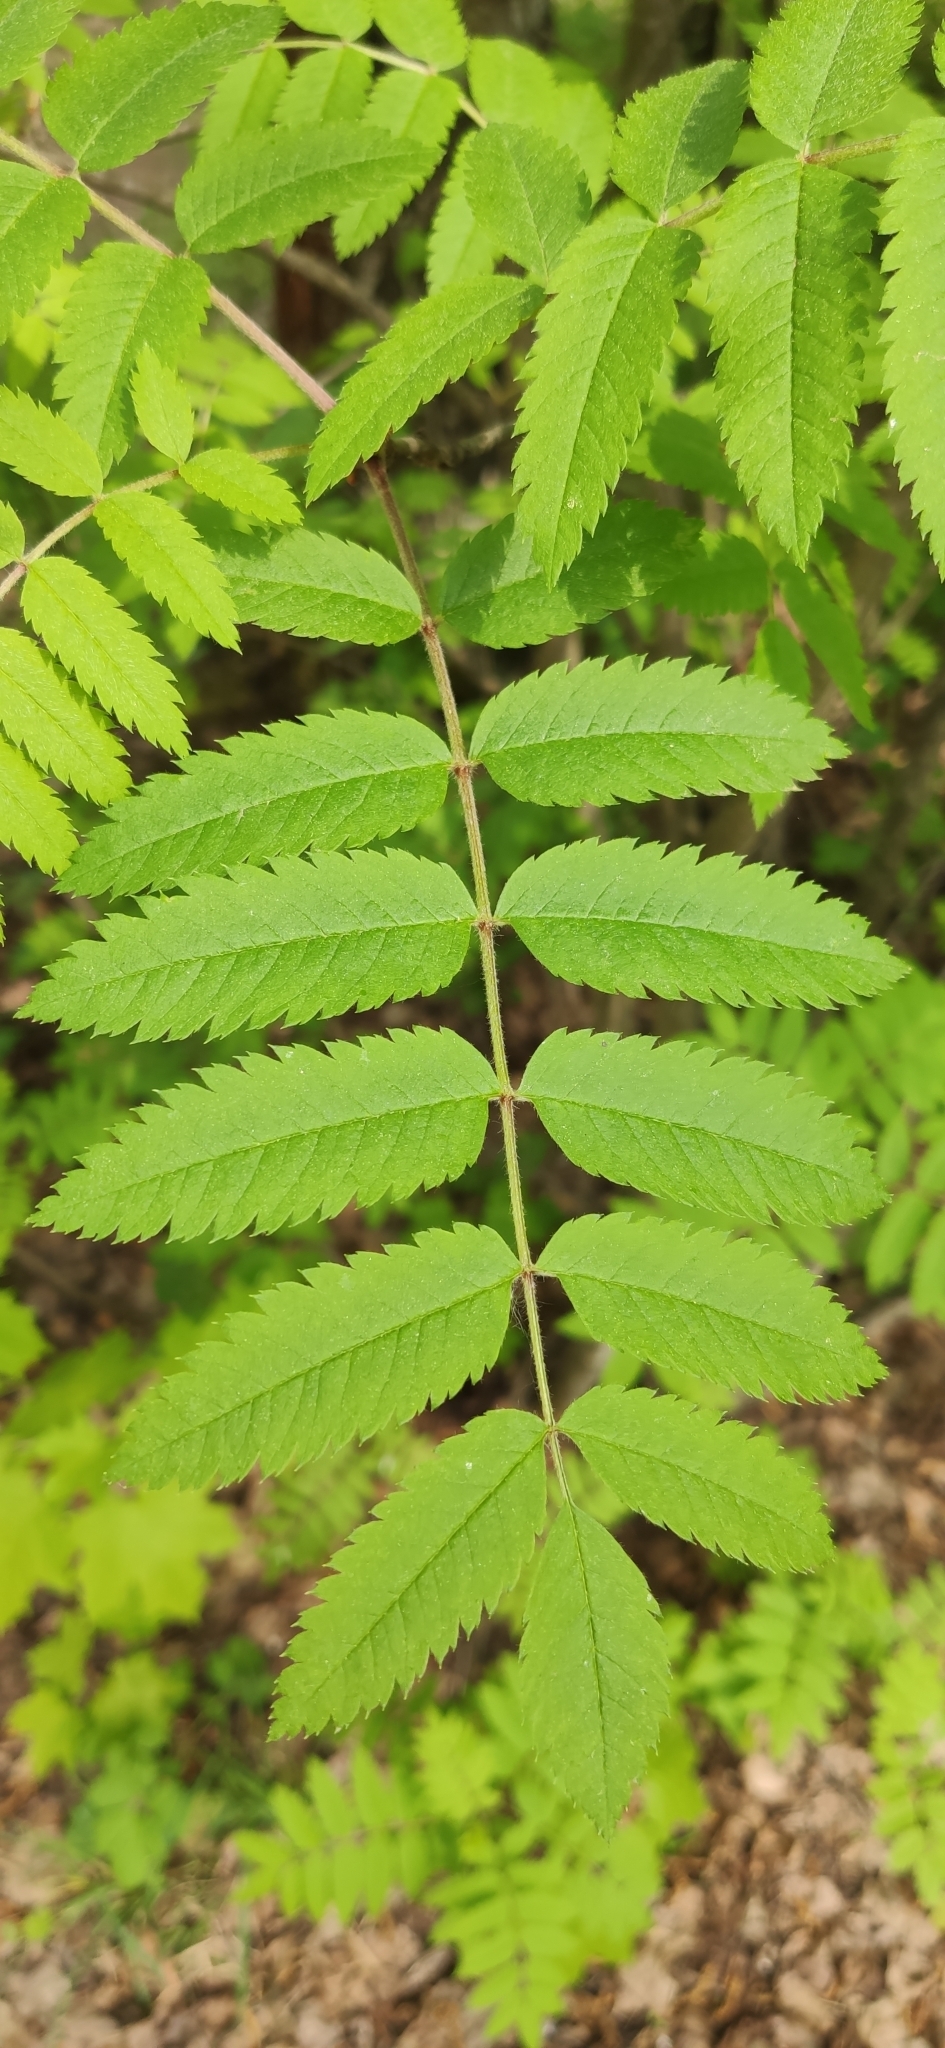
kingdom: Plantae
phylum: Tracheophyta
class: Magnoliopsida
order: Rosales
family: Rosaceae
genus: Sorbus
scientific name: Sorbus aucuparia
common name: Rowan
